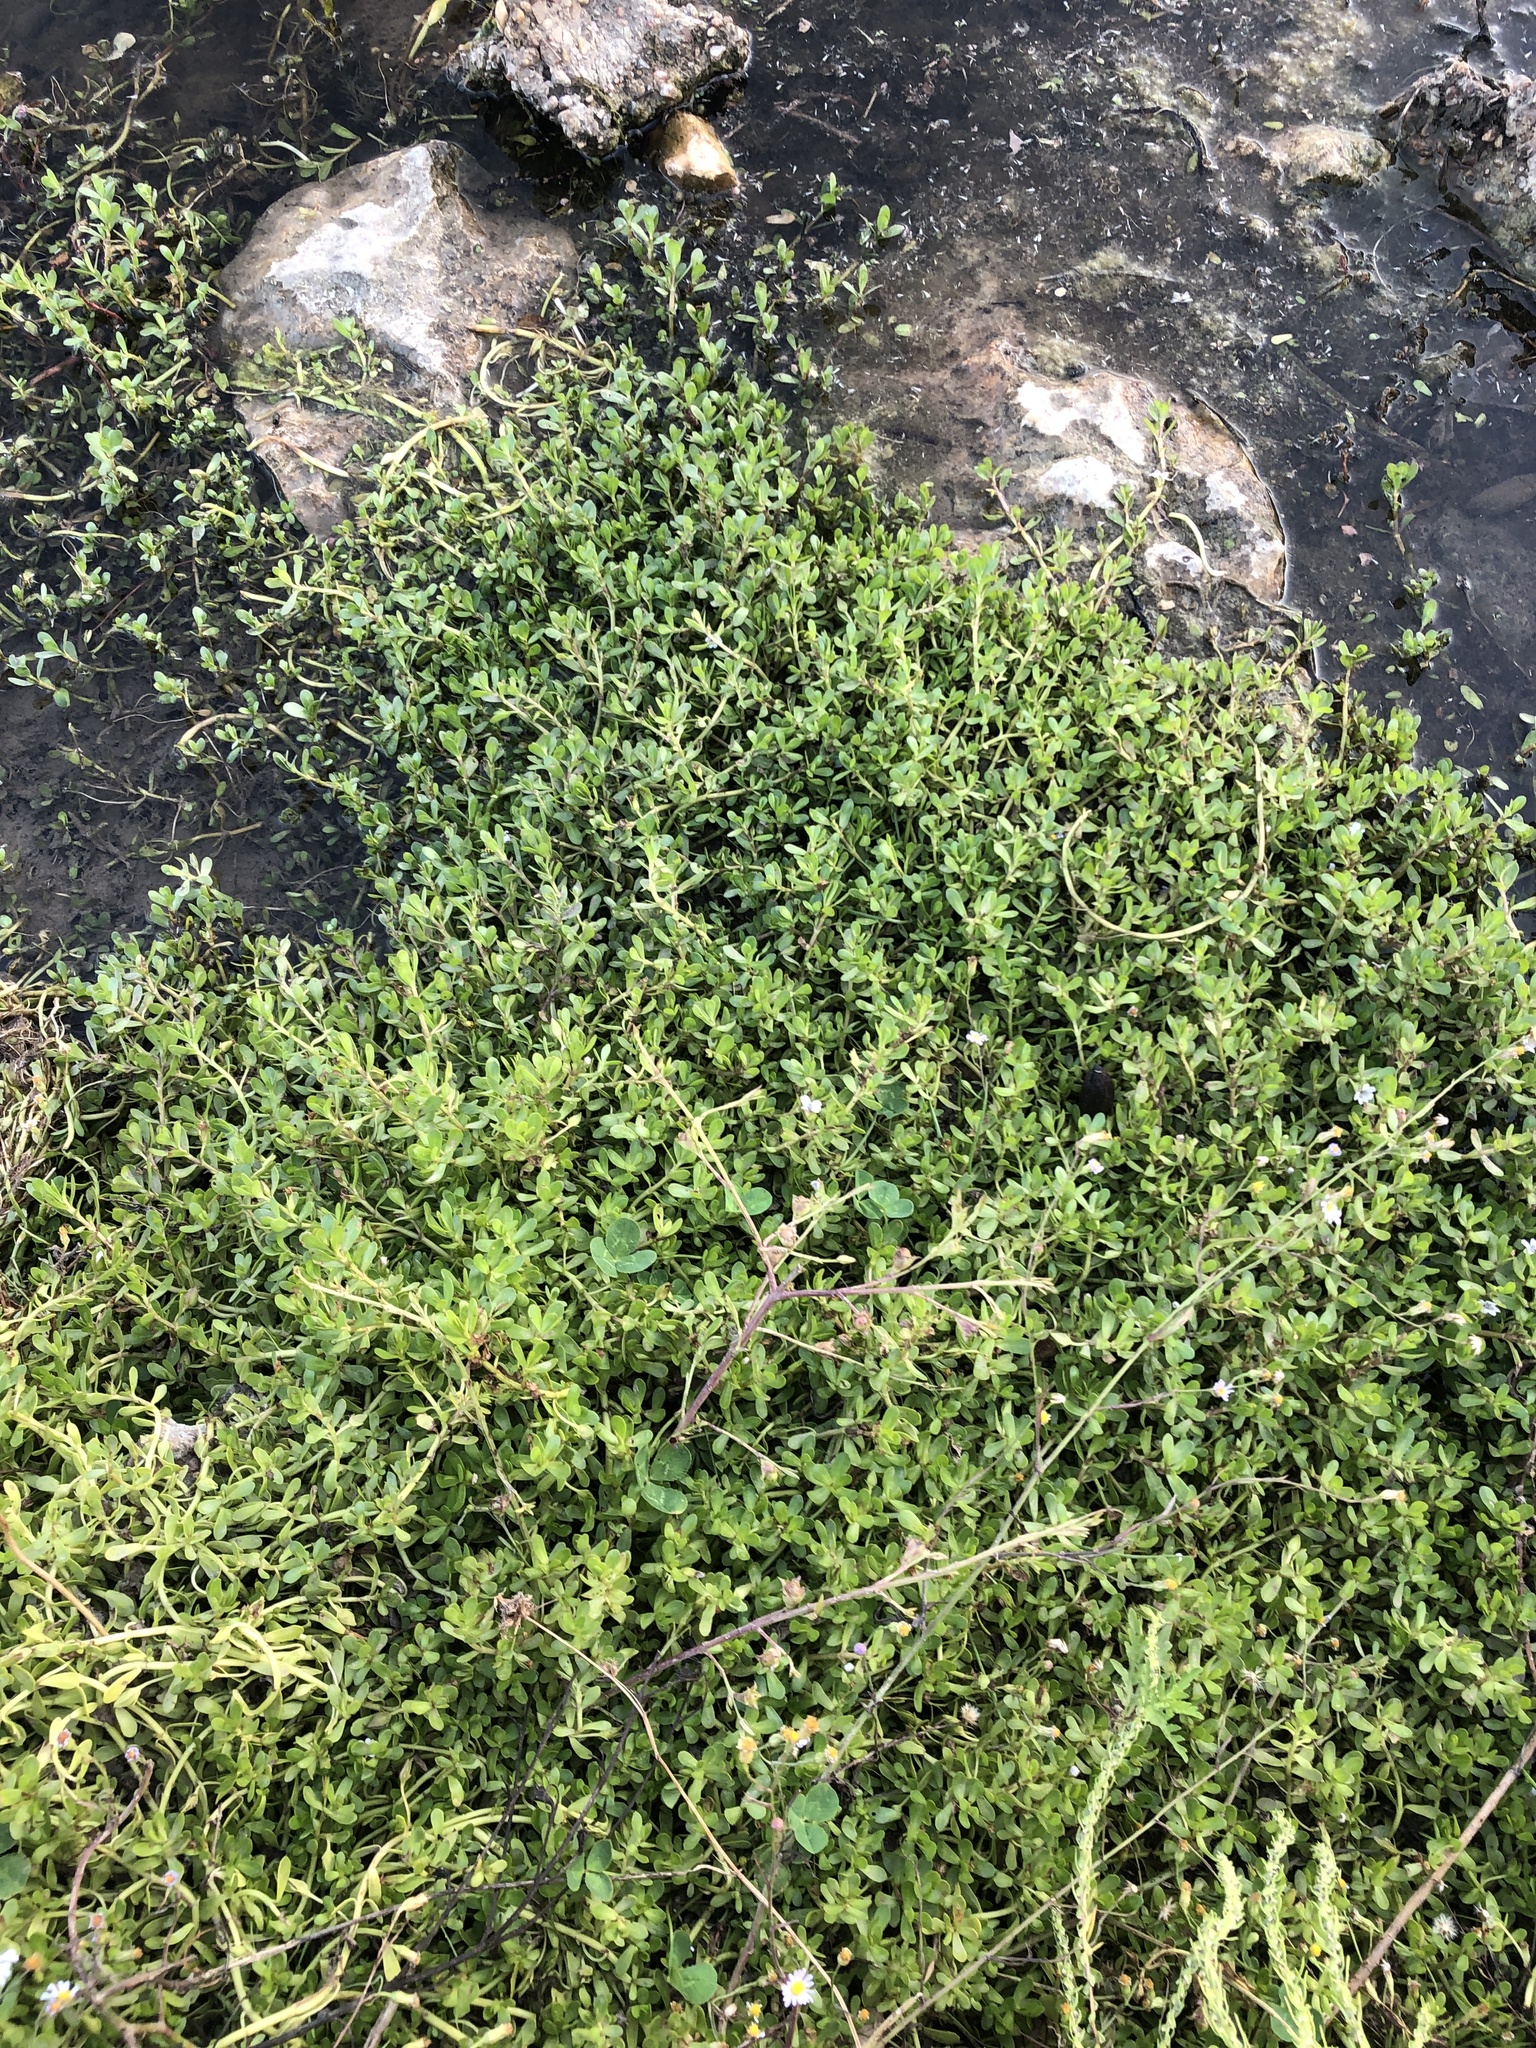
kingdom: Plantae
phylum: Tracheophyta
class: Magnoliopsida
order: Lamiales
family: Plantaginaceae
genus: Bacopa
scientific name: Bacopa monnieri
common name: Indian-pennywort
